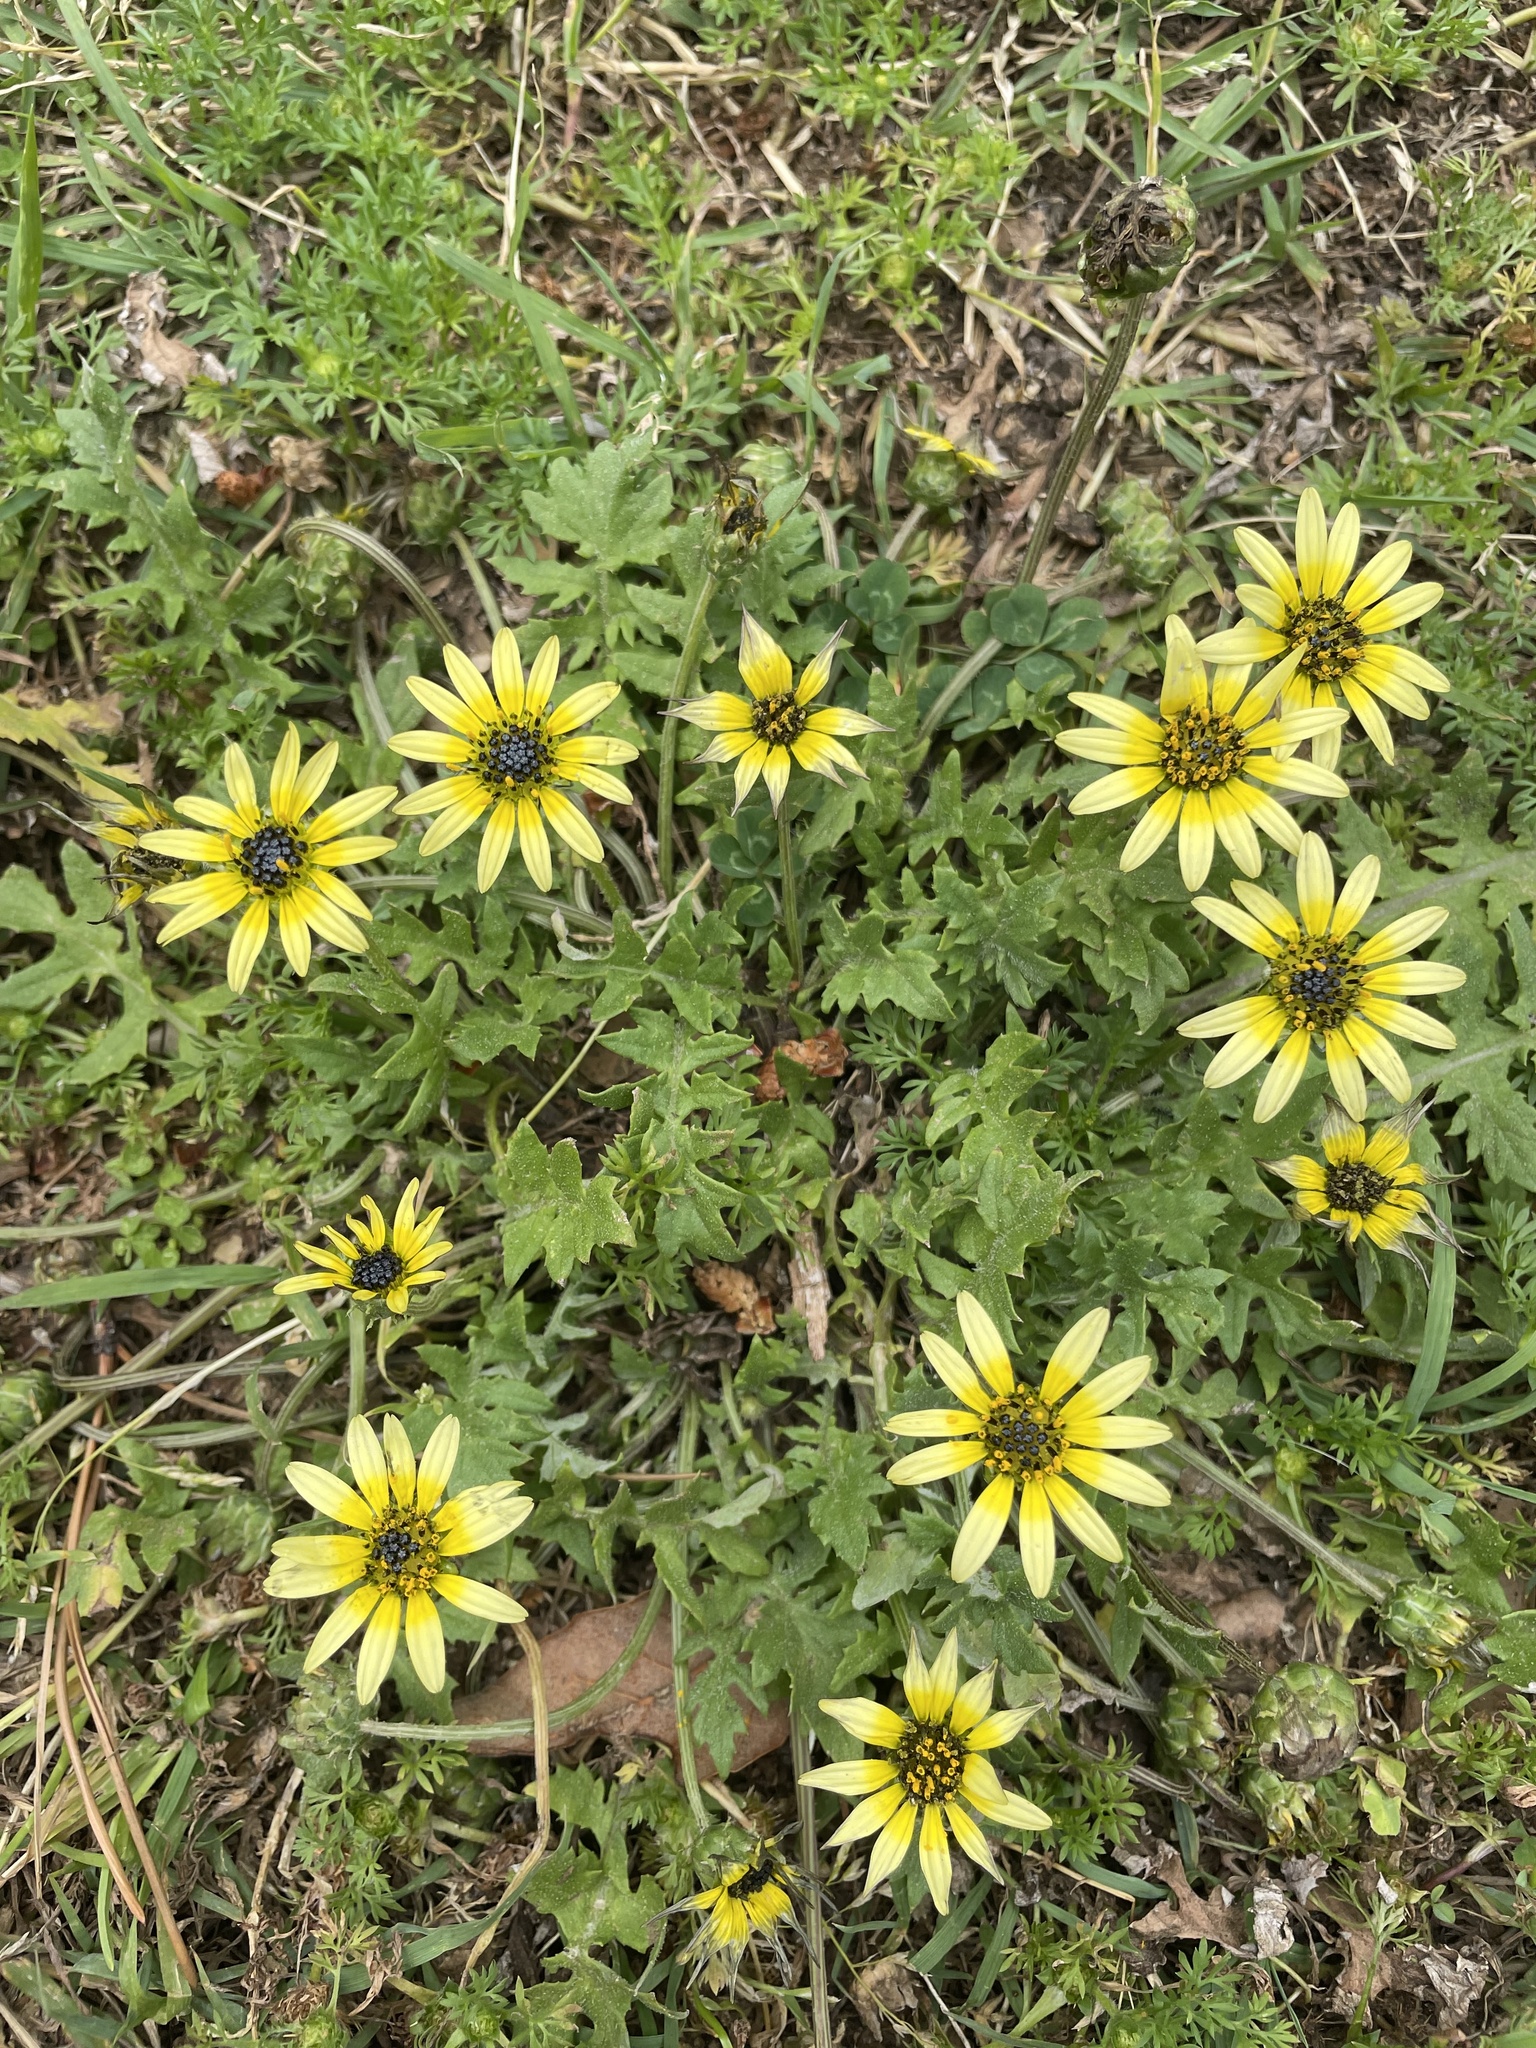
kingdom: Plantae
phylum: Tracheophyta
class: Magnoliopsida
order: Asterales
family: Asteraceae
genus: Arctotheca
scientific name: Arctotheca calendula
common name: Capeweed
